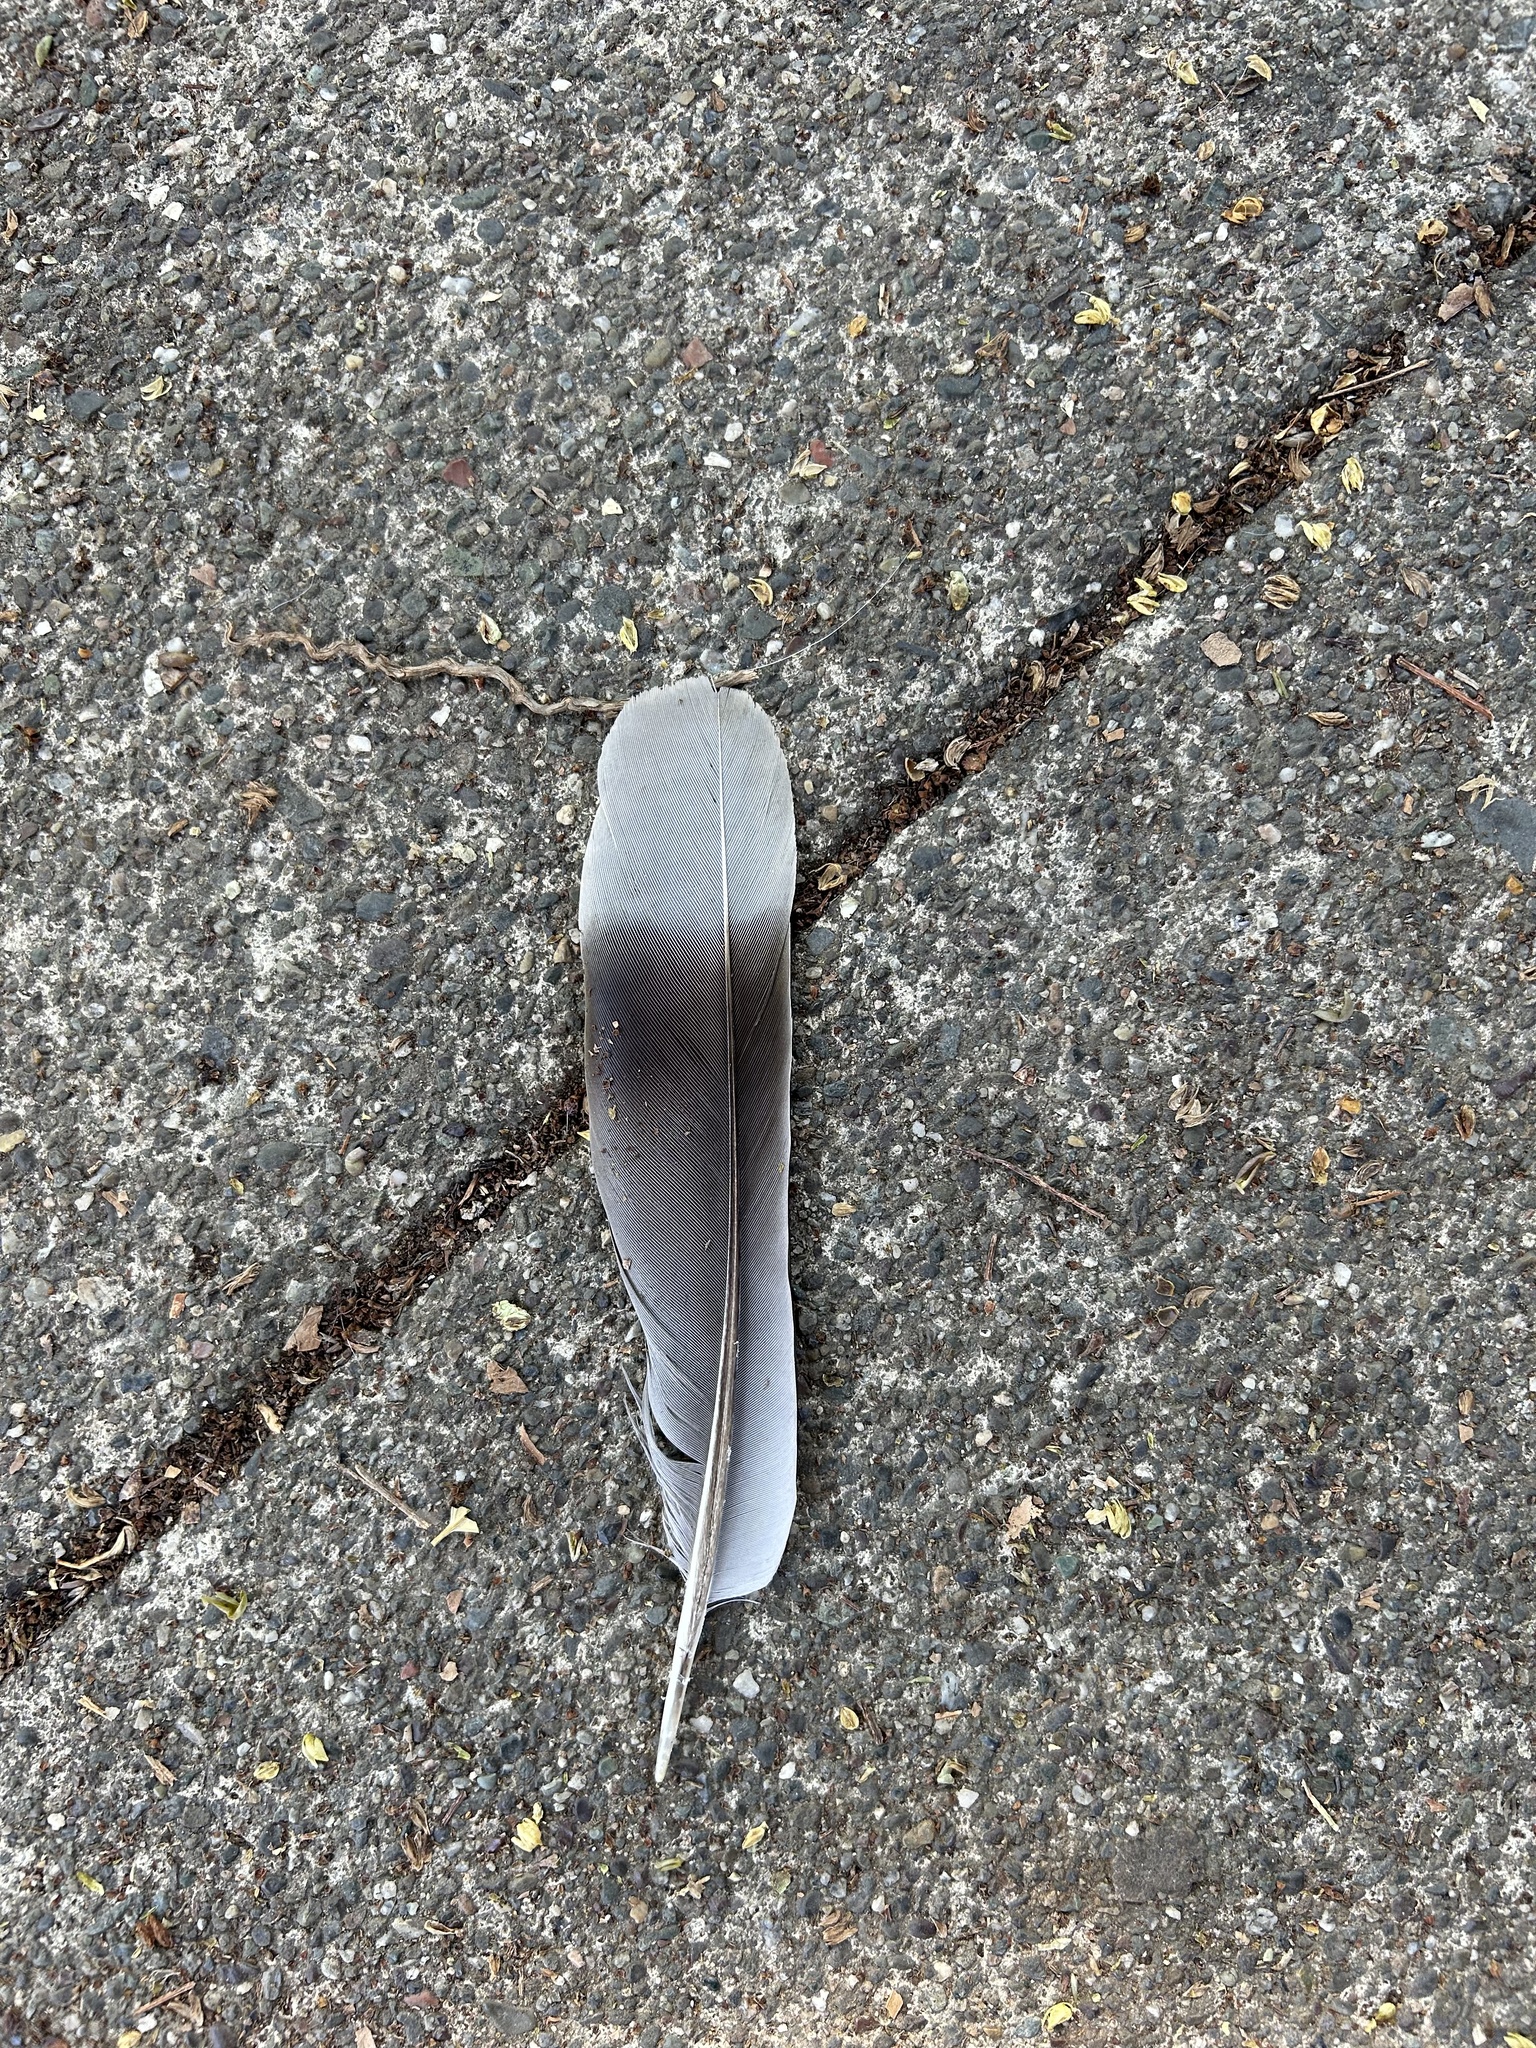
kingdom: Animalia
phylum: Chordata
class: Aves
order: Columbiformes
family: Columbidae
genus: Patagioenas
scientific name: Patagioenas fasciata
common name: Band-tailed pigeon
